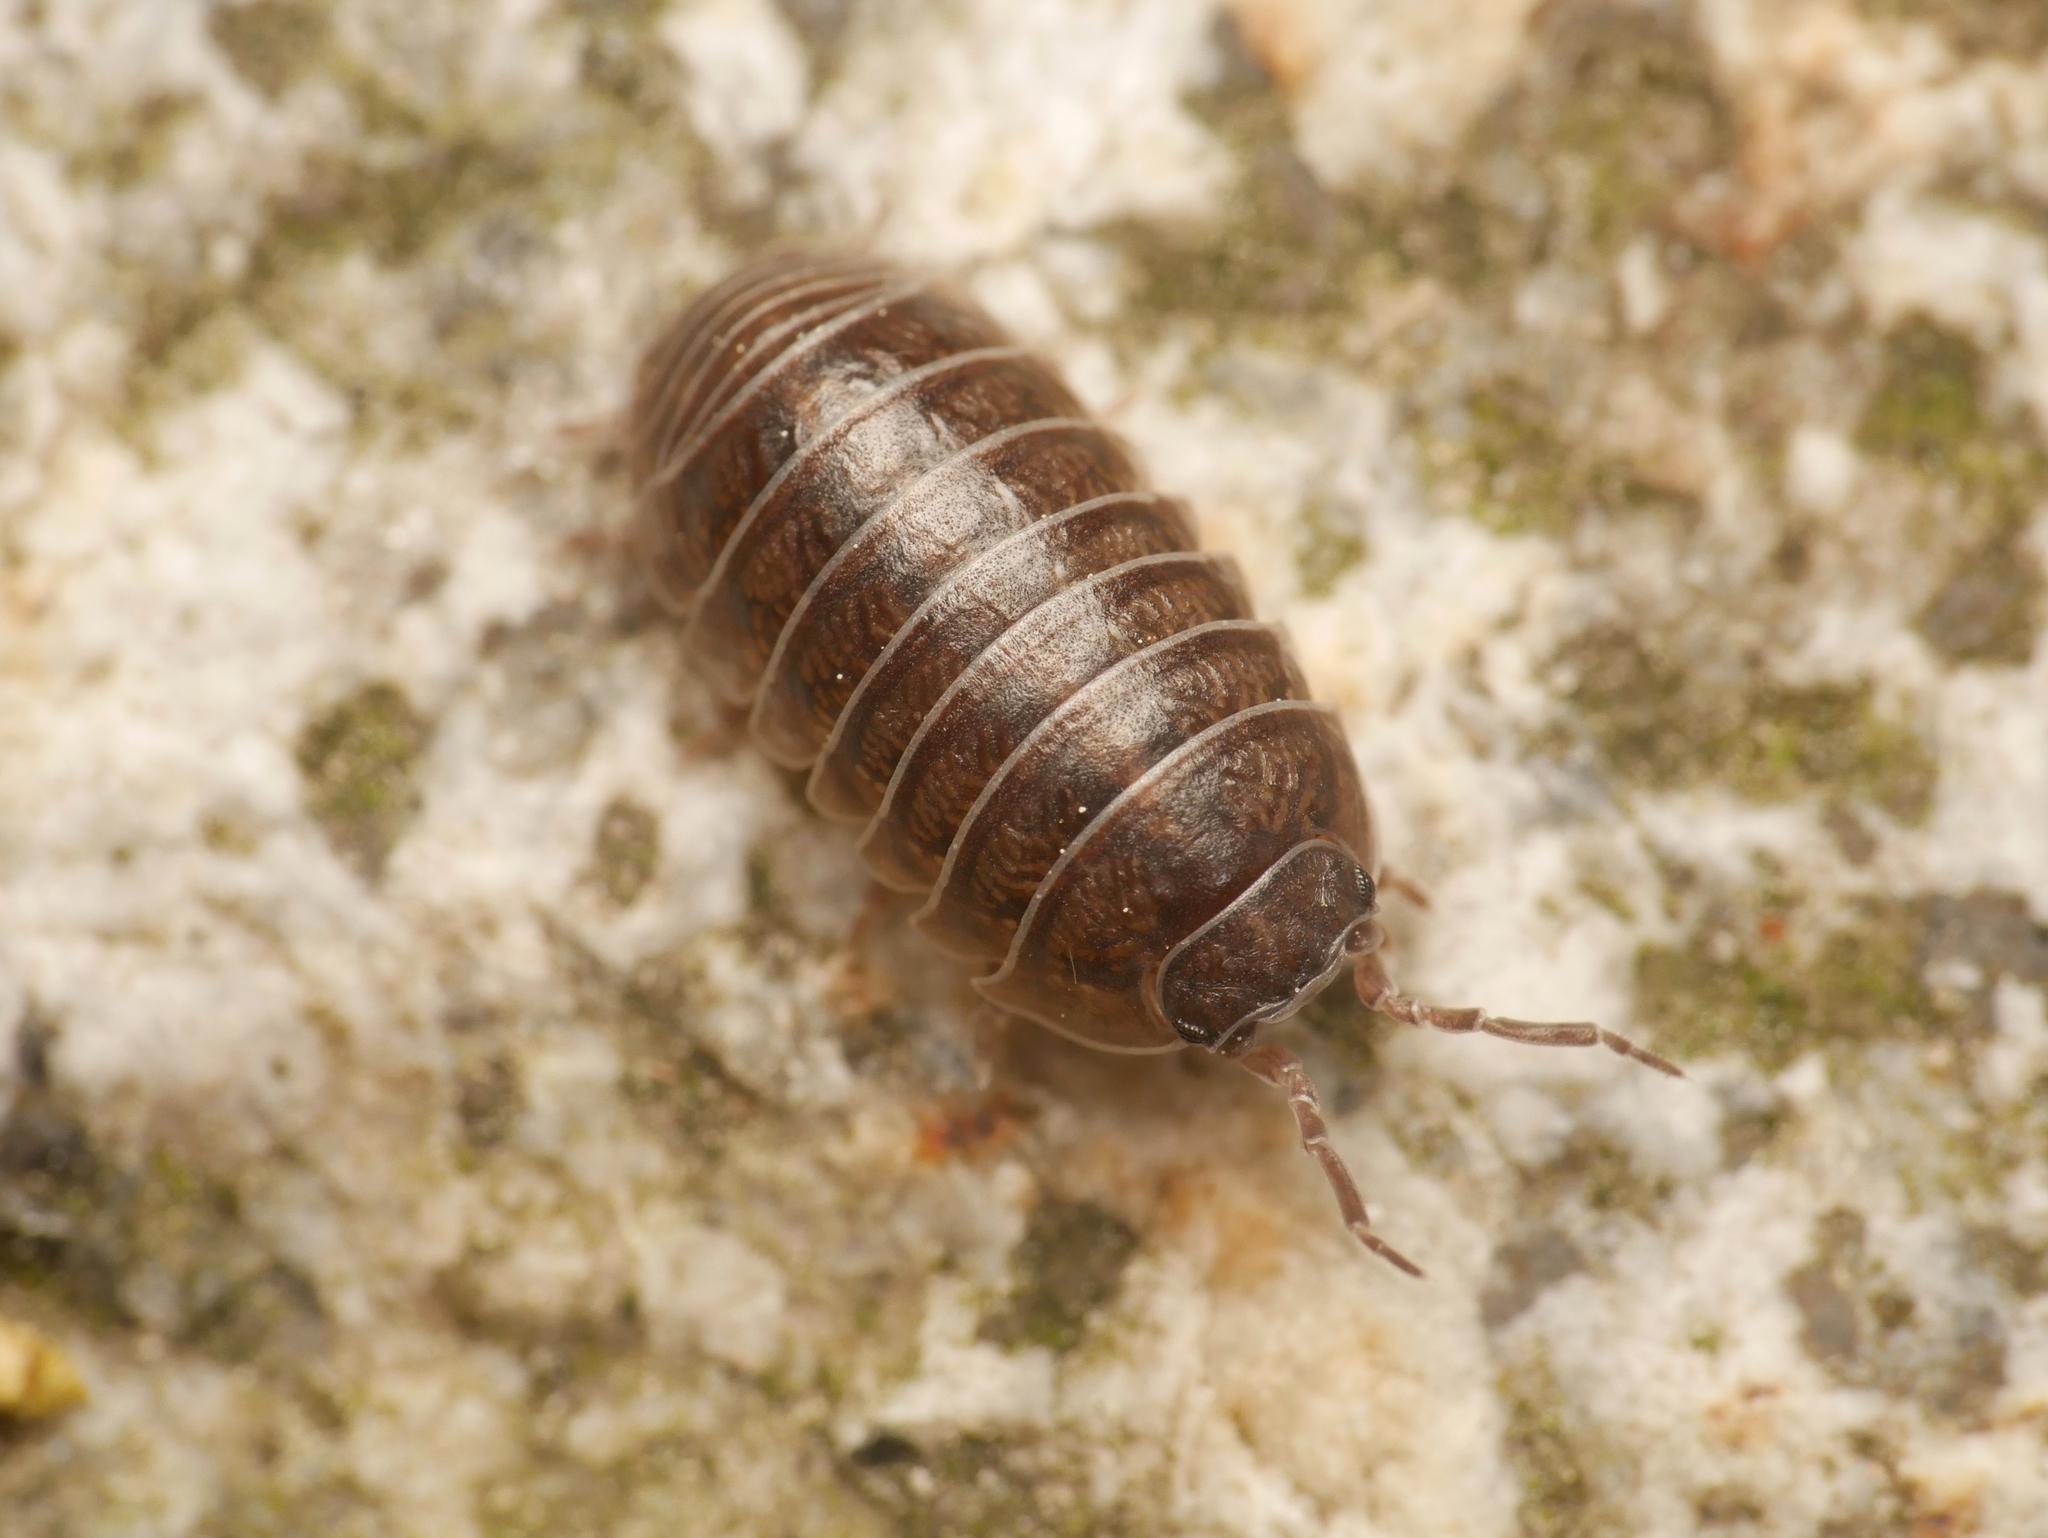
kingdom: Animalia
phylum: Arthropoda
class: Malacostraca
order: Isopoda
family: Armadillidiidae
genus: Armadillidium
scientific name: Armadillidium vulgare
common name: Common pill woodlouse
